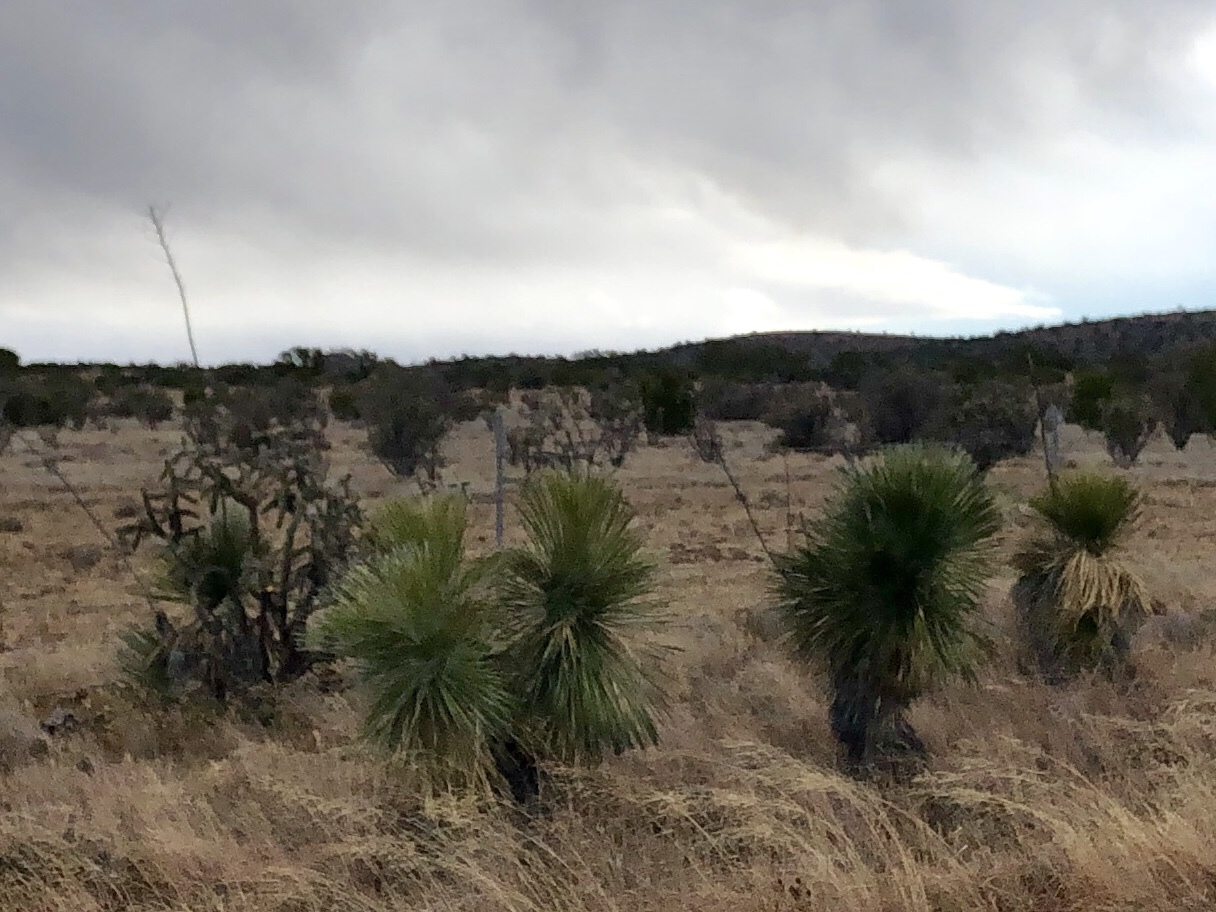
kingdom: Plantae
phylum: Tracheophyta
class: Liliopsida
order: Asparagales
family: Asparagaceae
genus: Yucca
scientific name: Yucca elata
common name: Palmella
